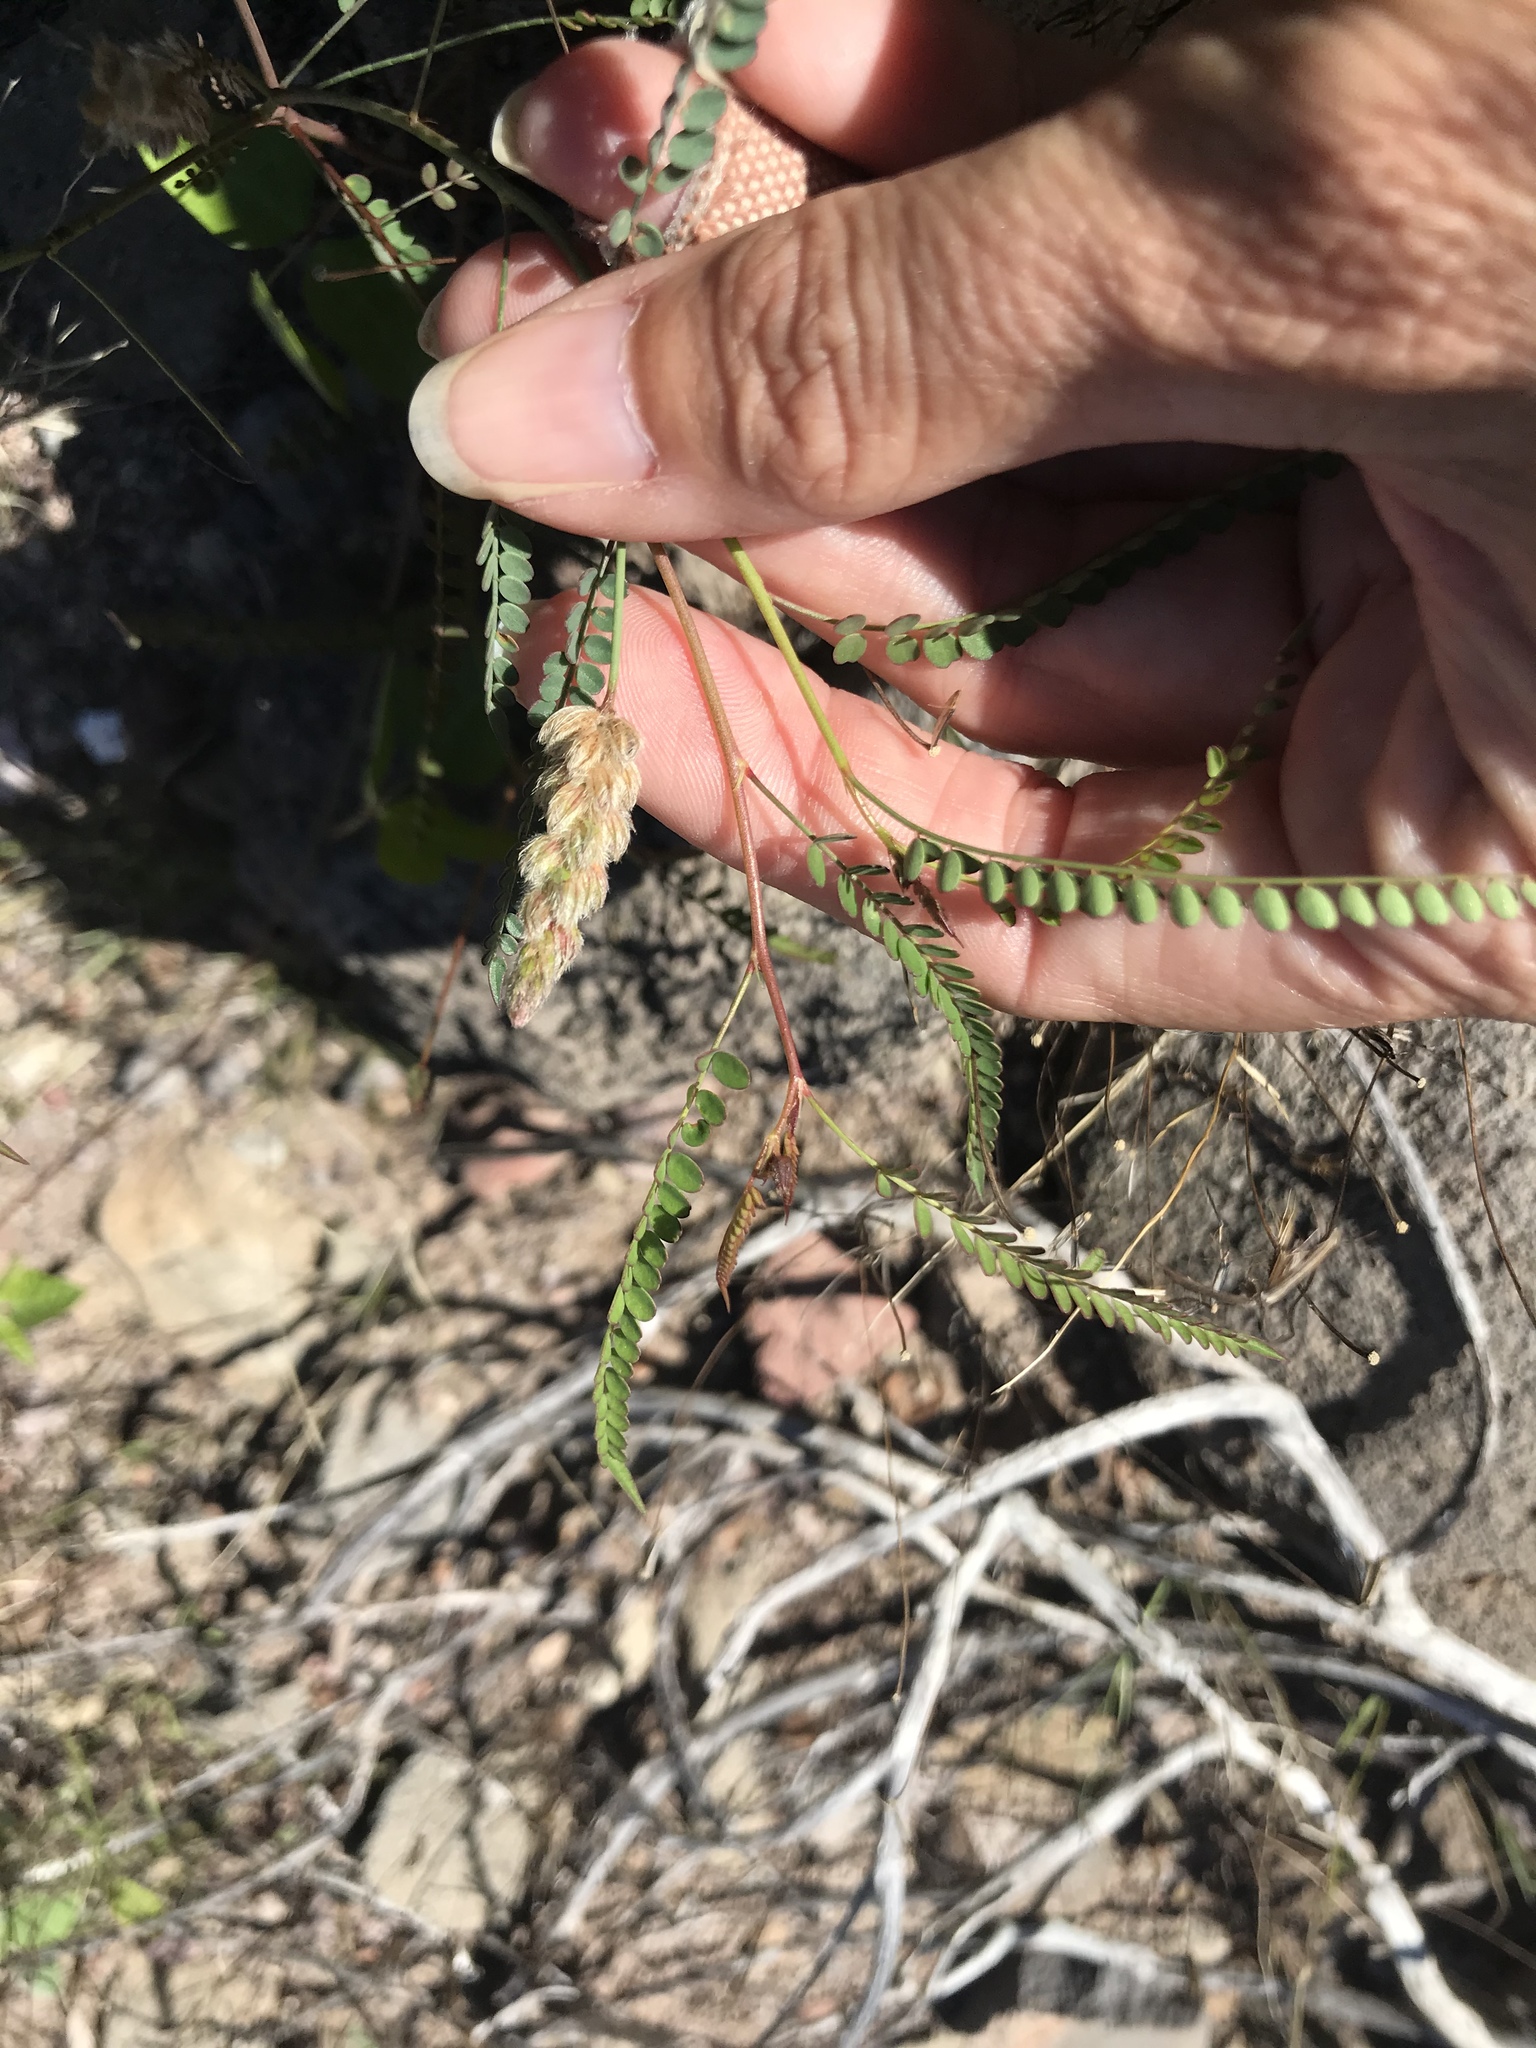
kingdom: Plantae
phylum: Tracheophyta
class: Magnoliopsida
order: Fabales
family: Fabaceae
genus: Marina
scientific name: Marina vetula
